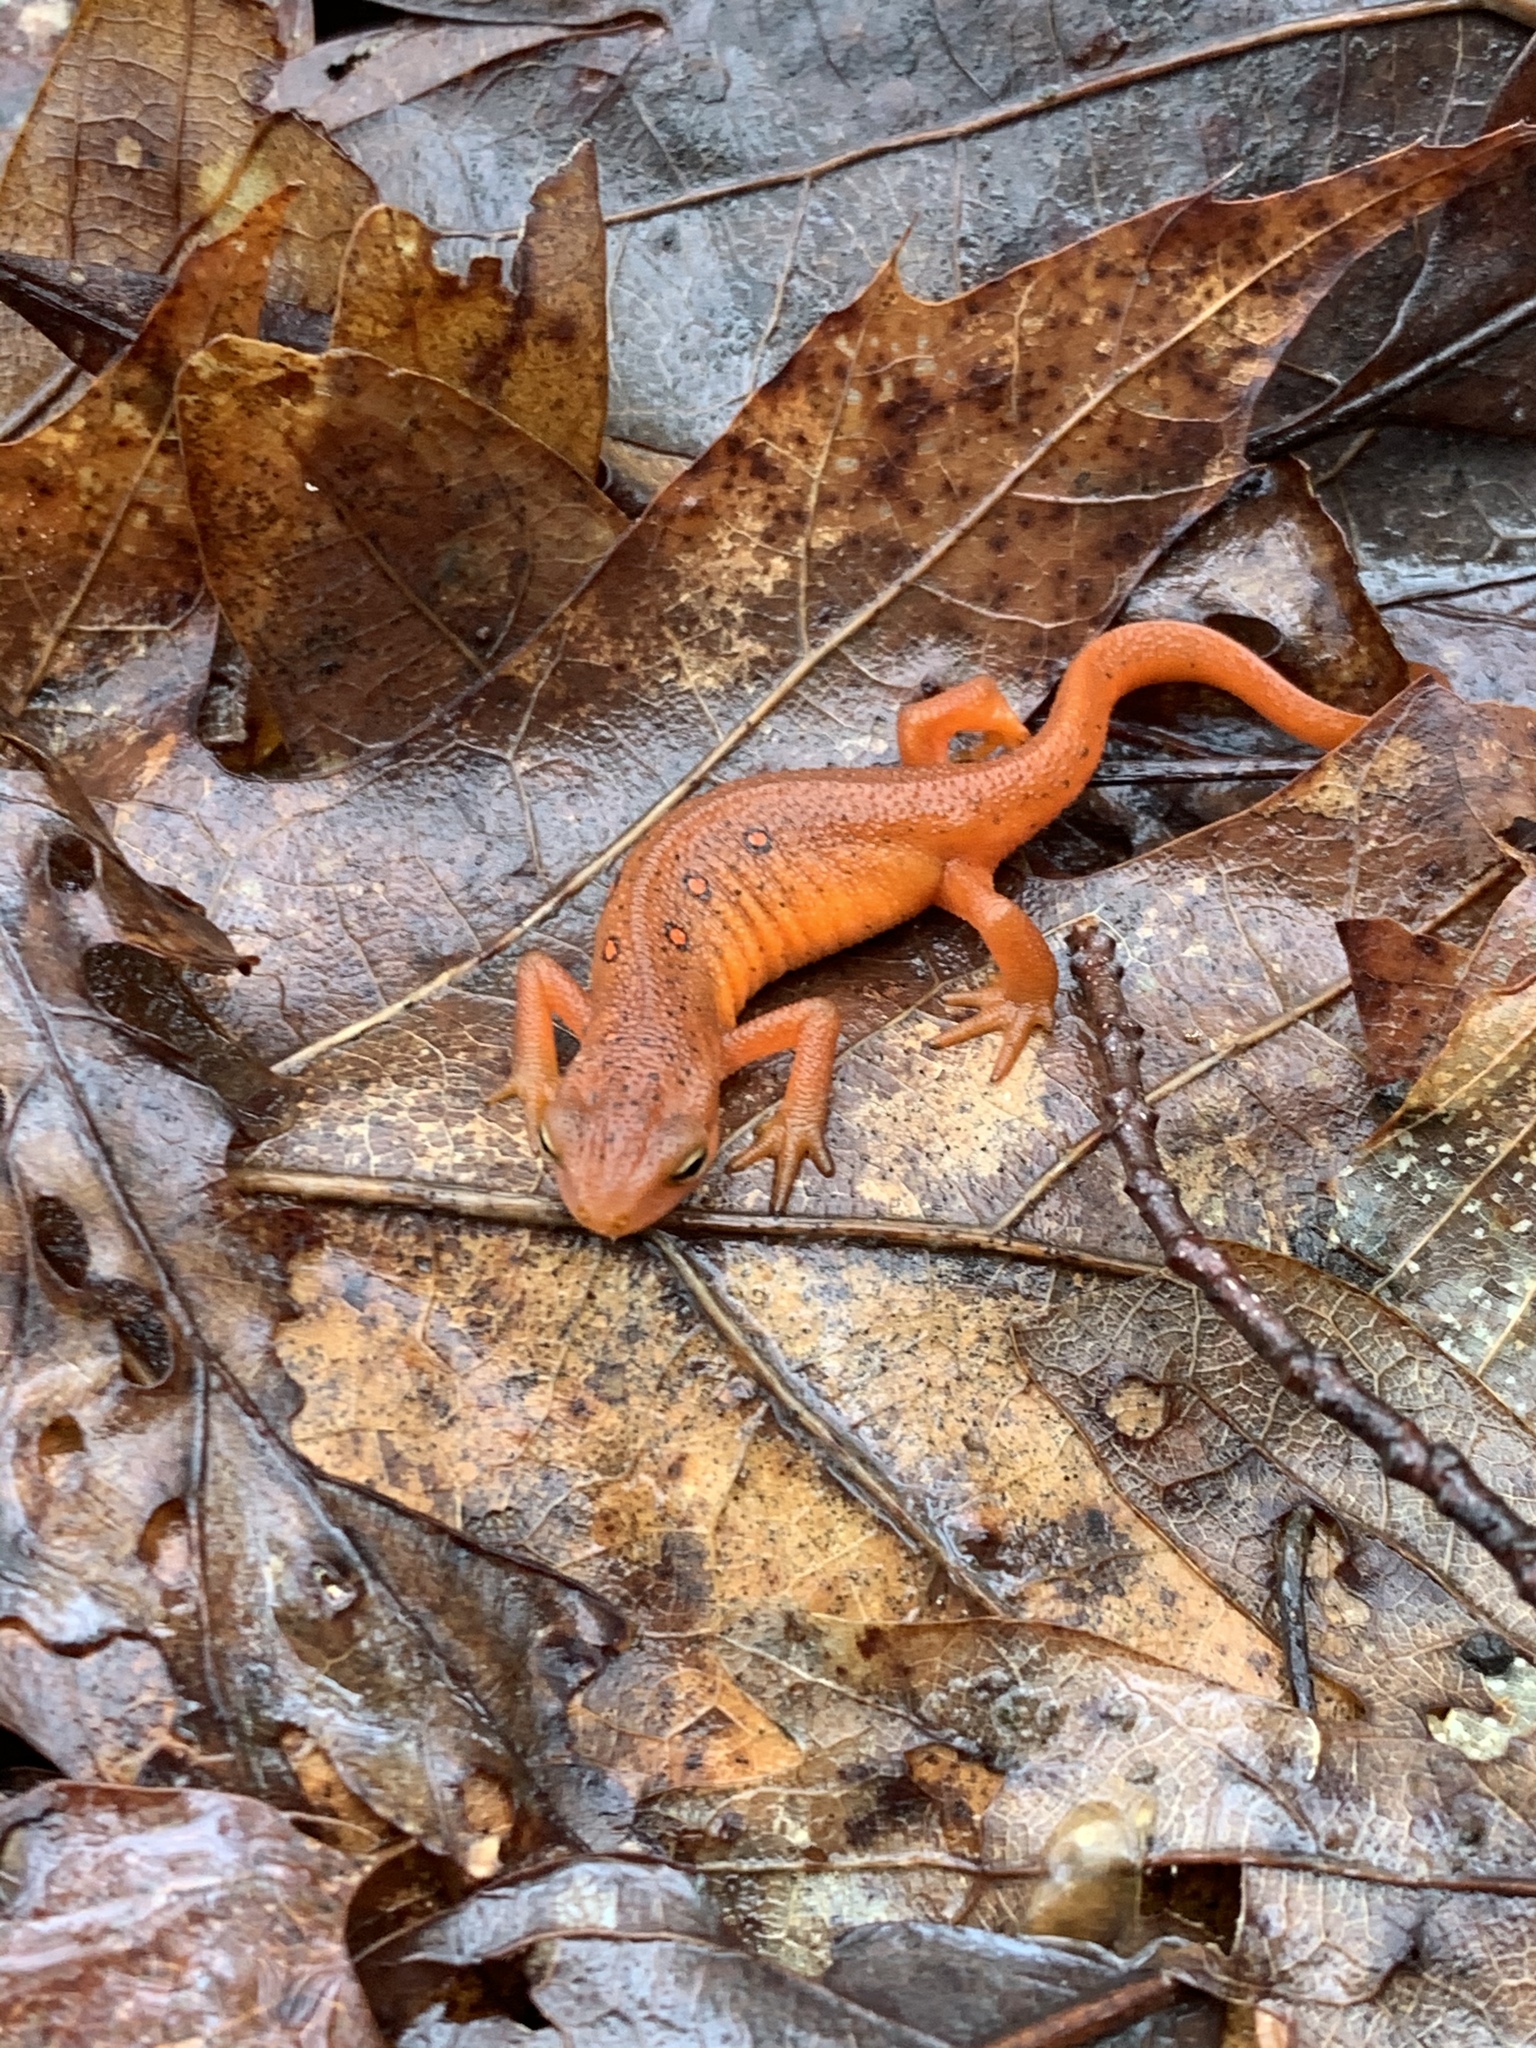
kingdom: Animalia
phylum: Chordata
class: Amphibia
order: Caudata
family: Salamandridae
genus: Notophthalmus
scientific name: Notophthalmus viridescens
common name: Eastern newt
